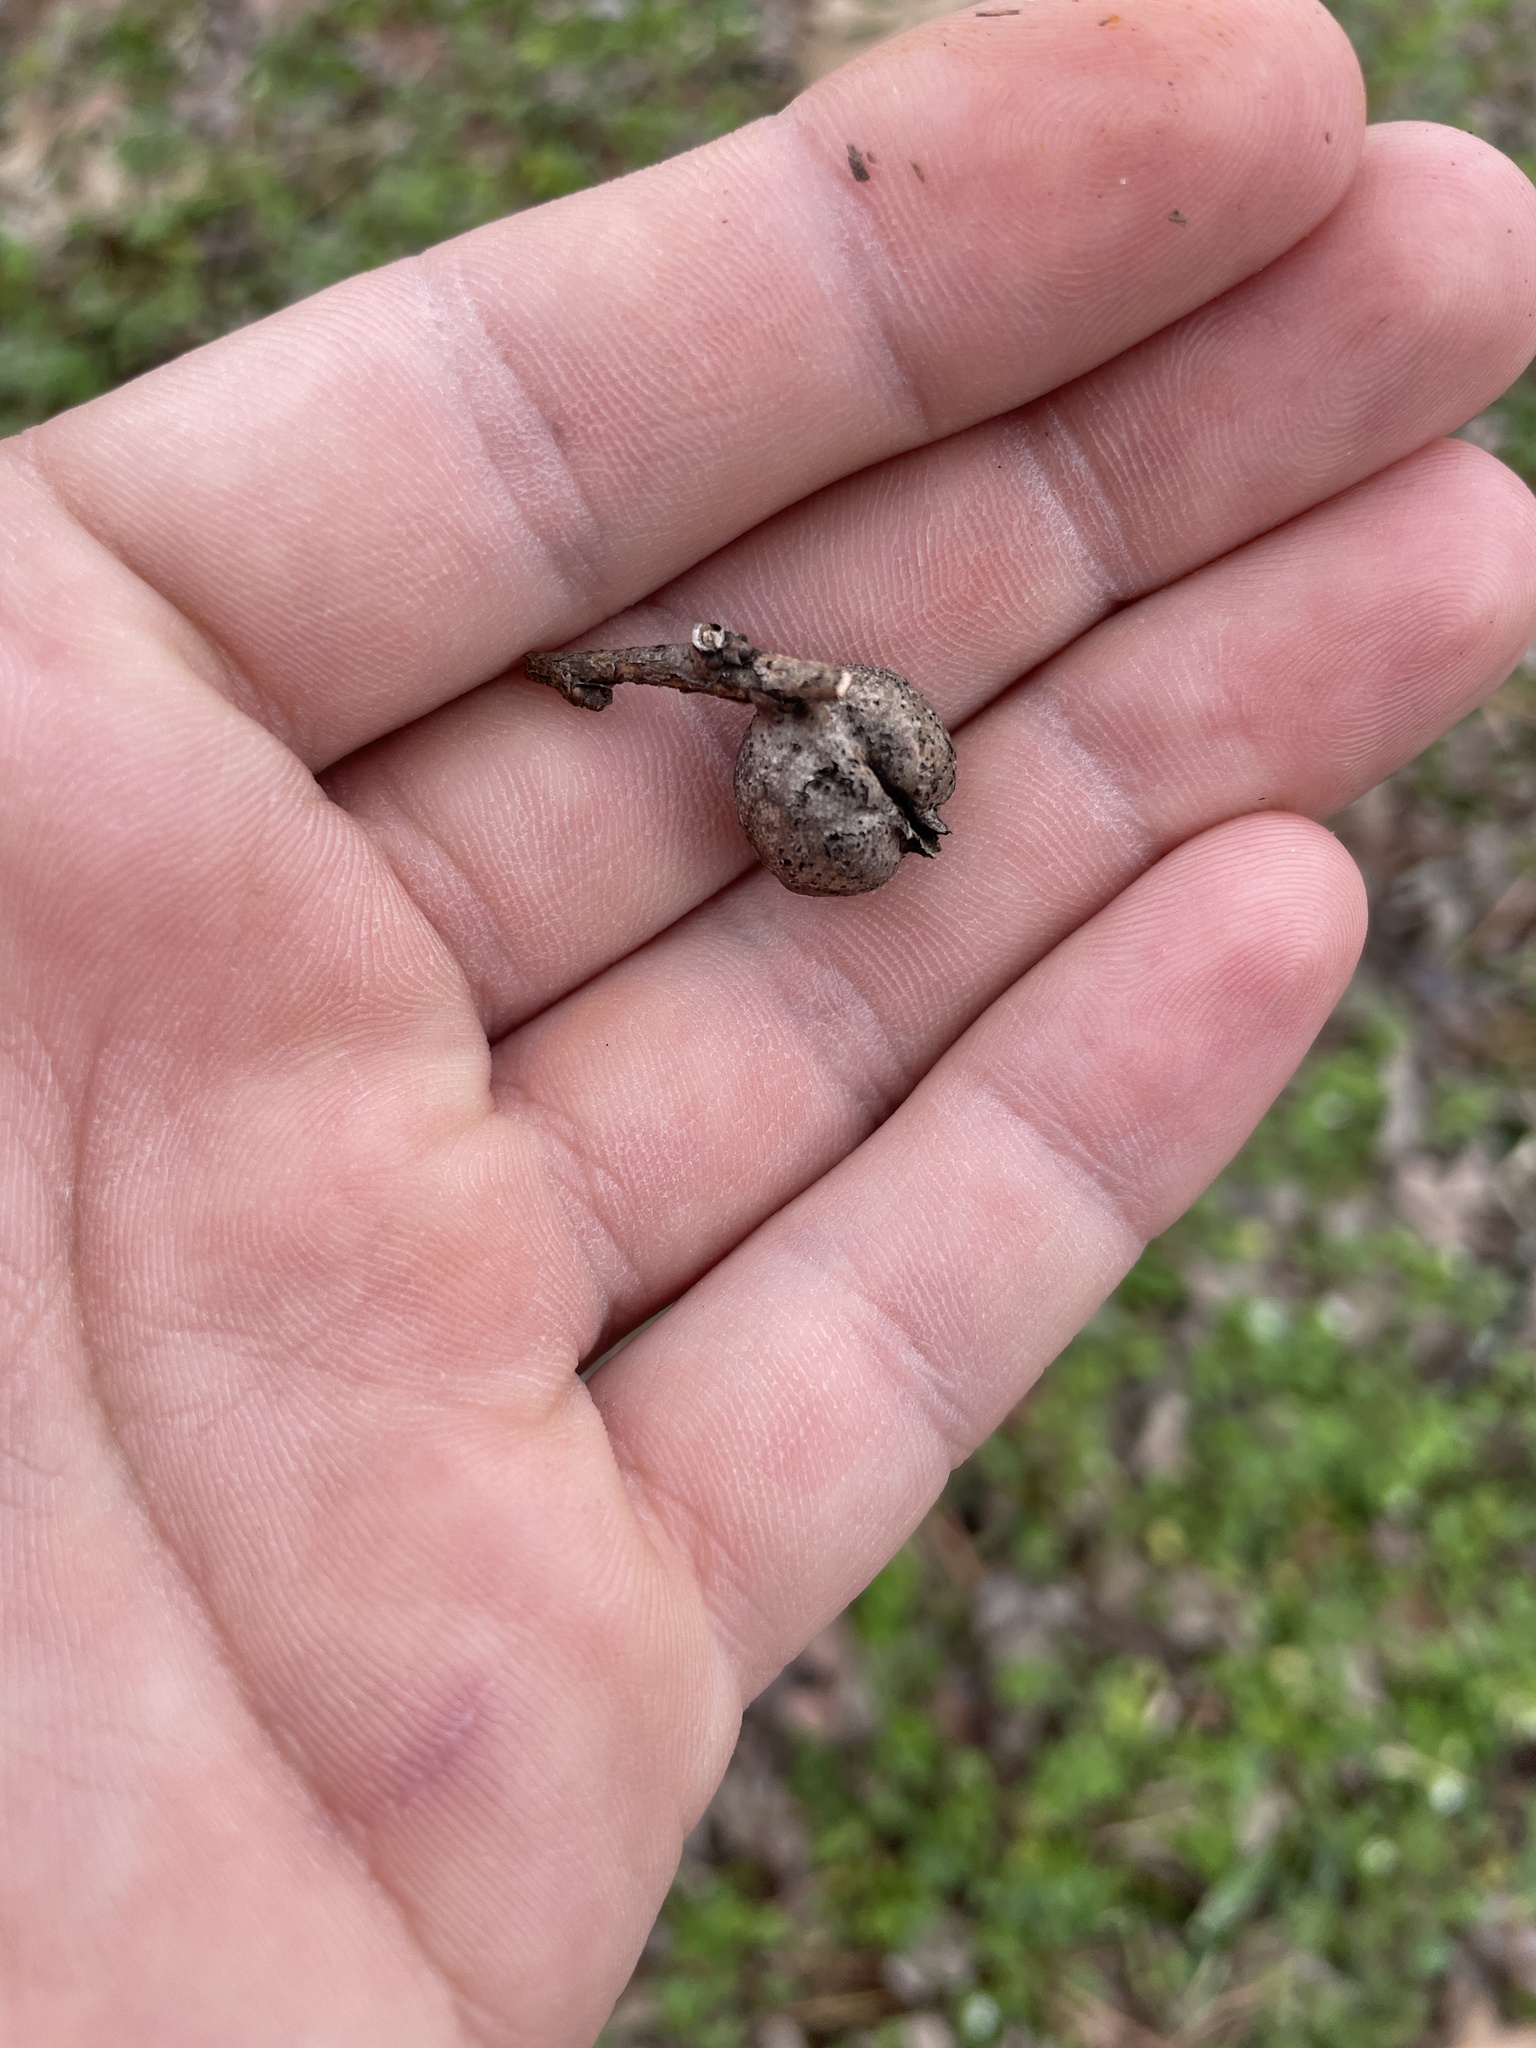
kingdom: Animalia
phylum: Arthropoda
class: Insecta
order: Hemiptera
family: Aphalaridae
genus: Pachypsylla
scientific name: Pachypsylla venusta
